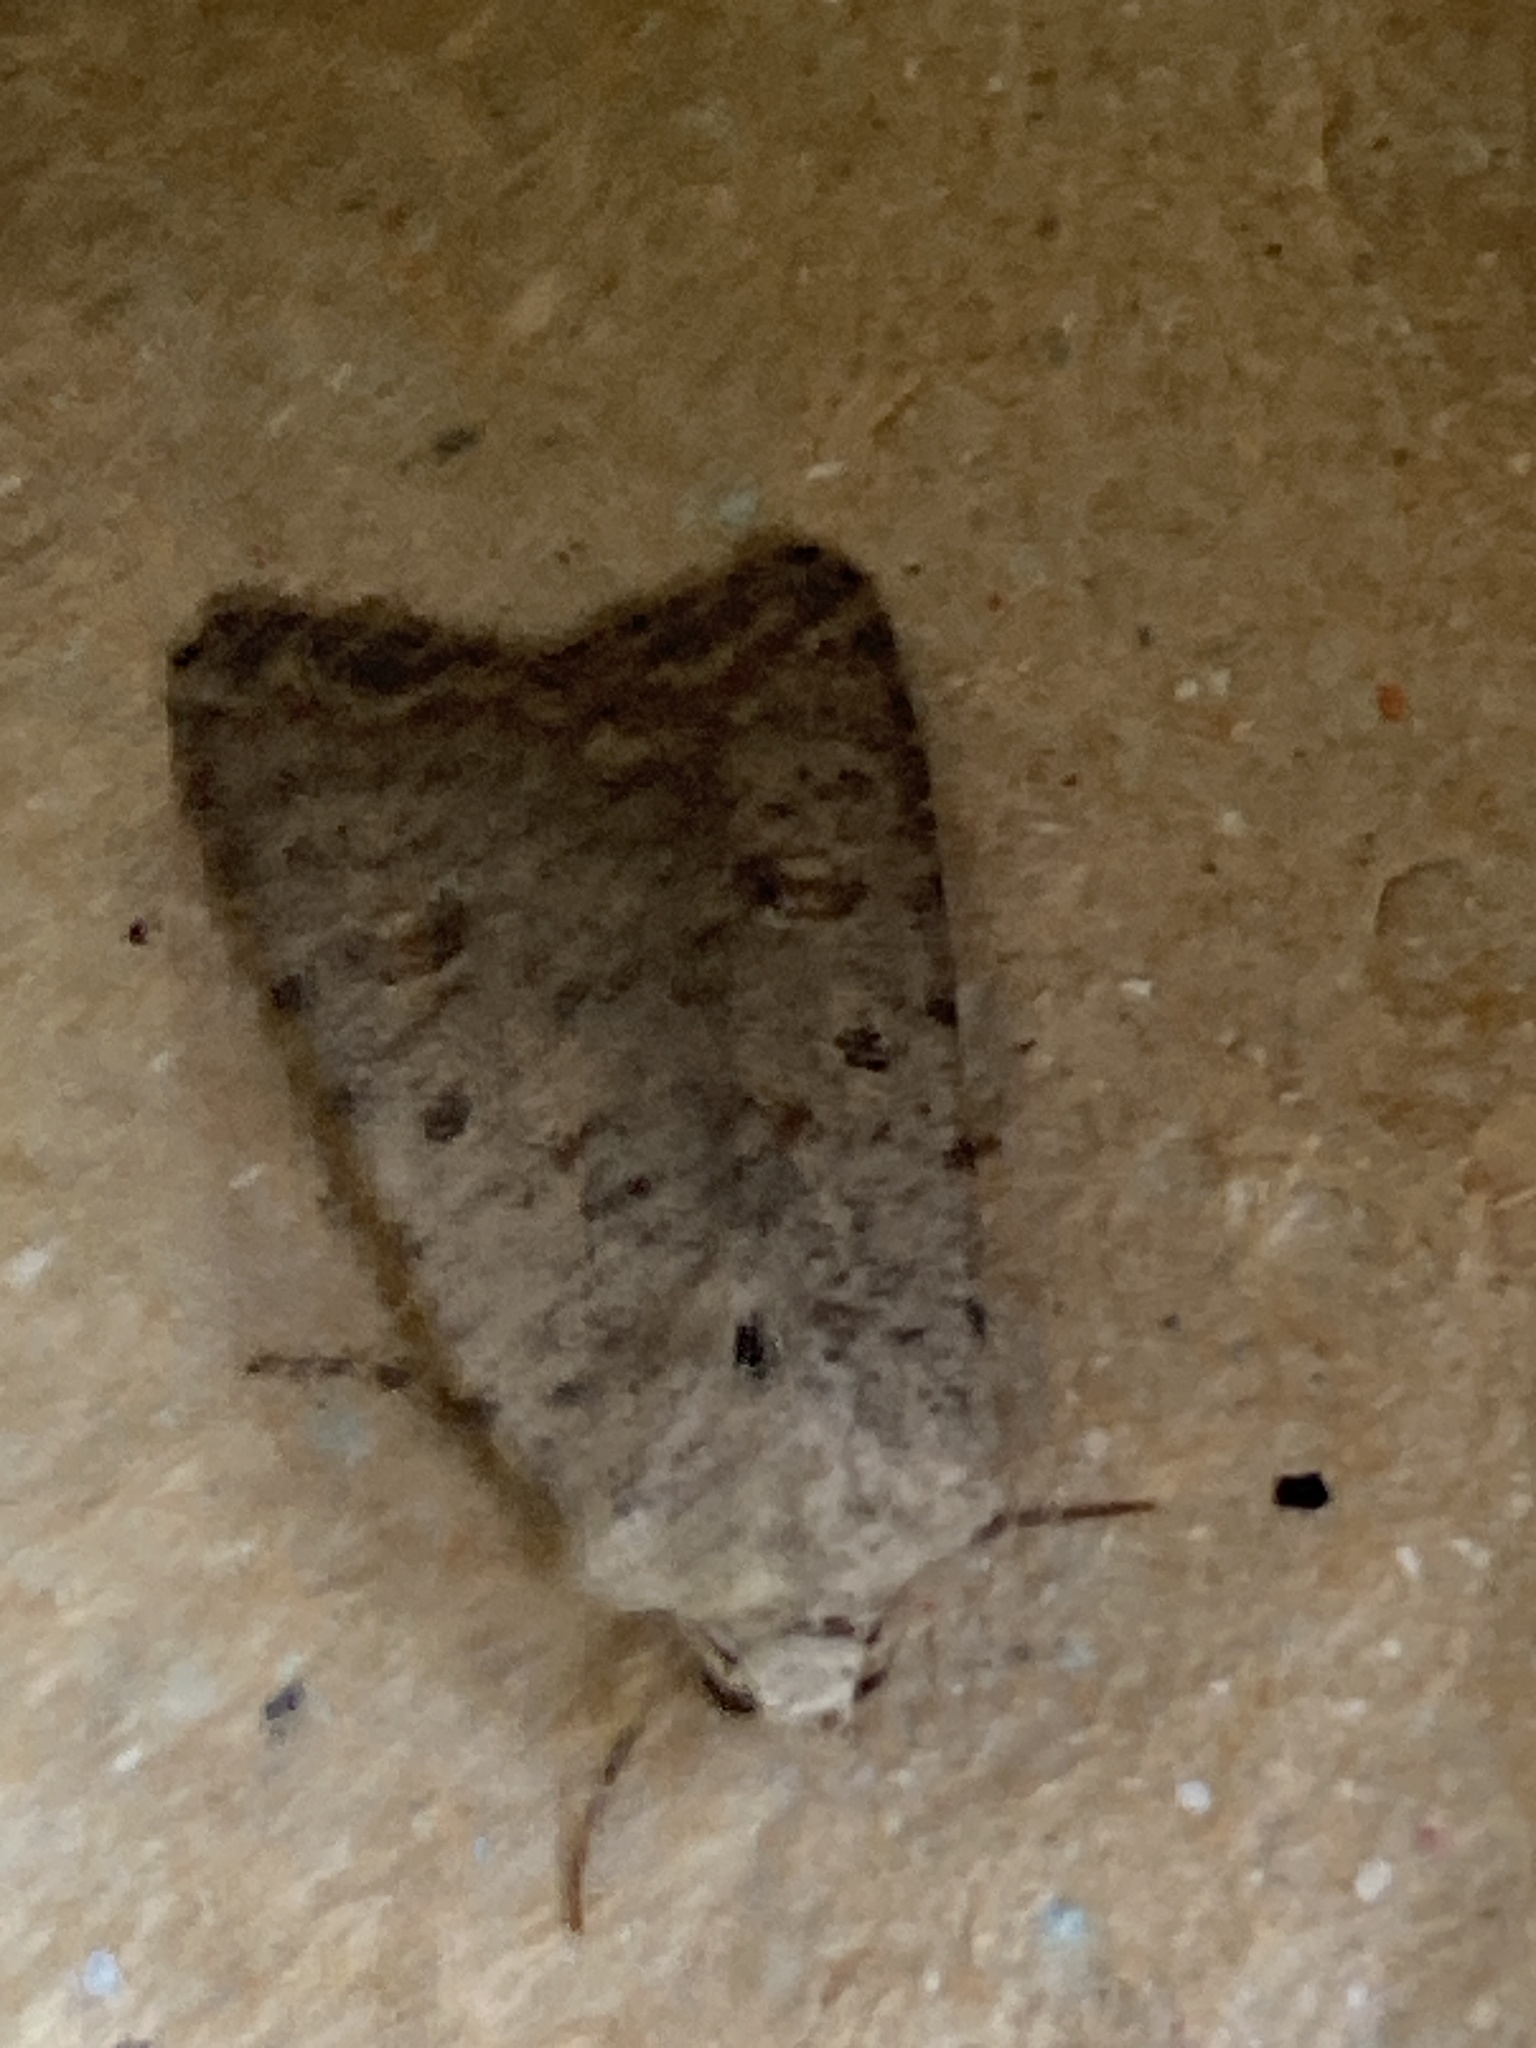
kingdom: Animalia
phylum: Arthropoda
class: Insecta
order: Lepidoptera
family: Noctuidae
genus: Caradrina
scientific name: Caradrina clavipalpis
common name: Pale mottled willow
